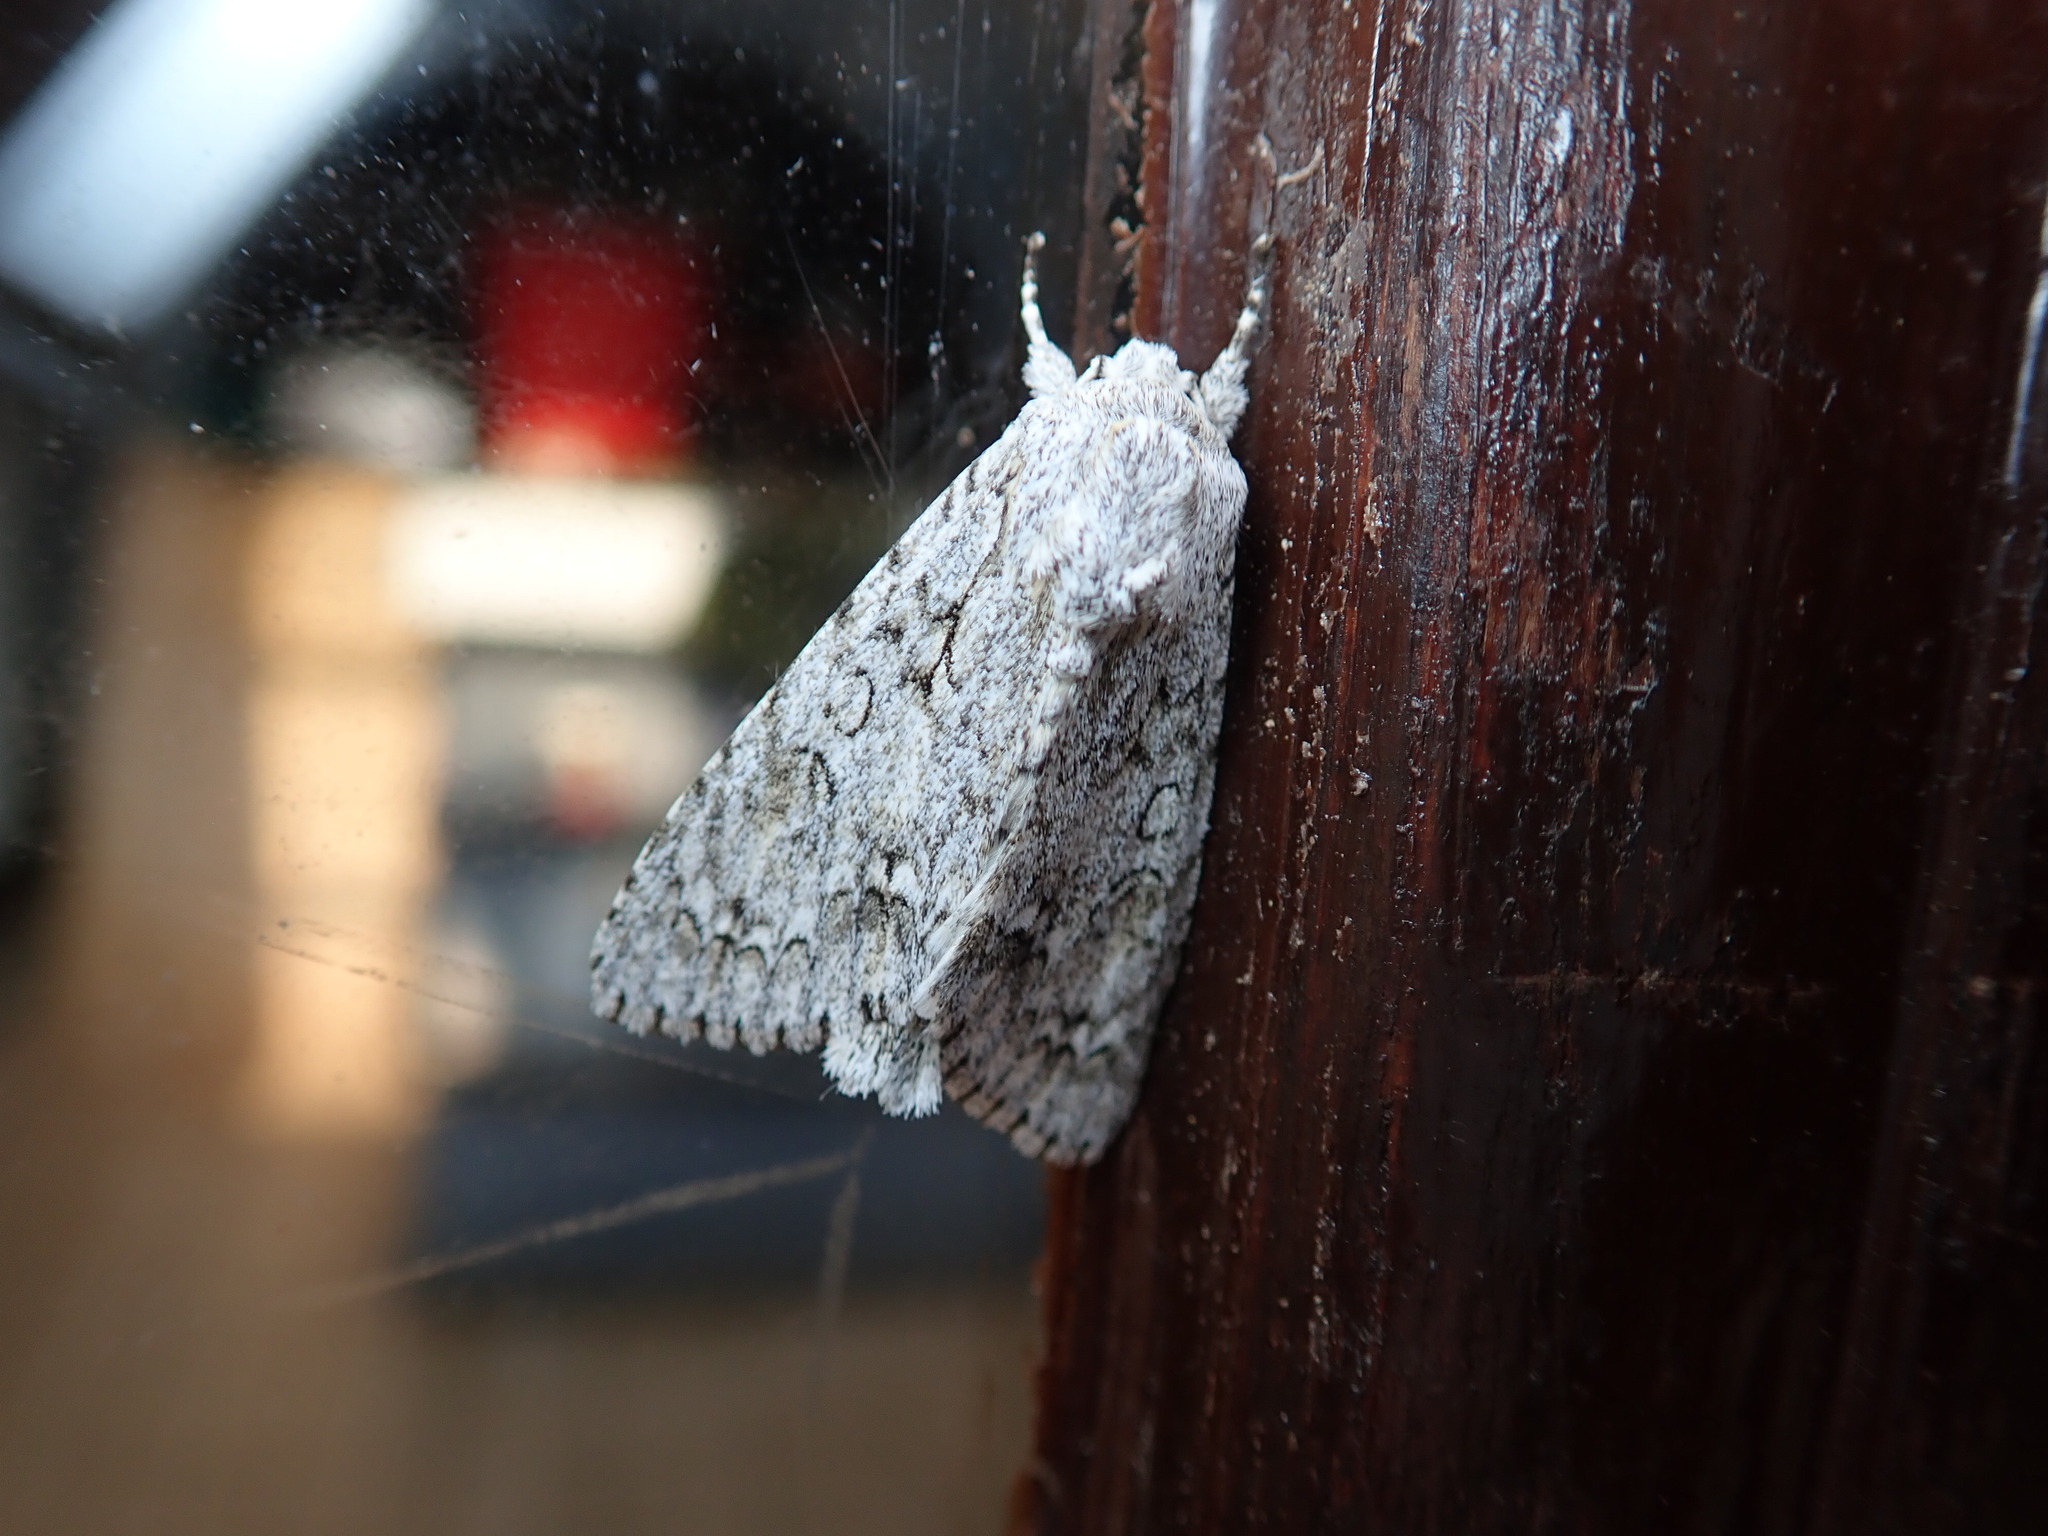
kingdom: Animalia
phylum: Arthropoda
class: Insecta
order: Lepidoptera
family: Noctuidae
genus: Acronicta
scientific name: Acronicta aceris
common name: Sycamore
